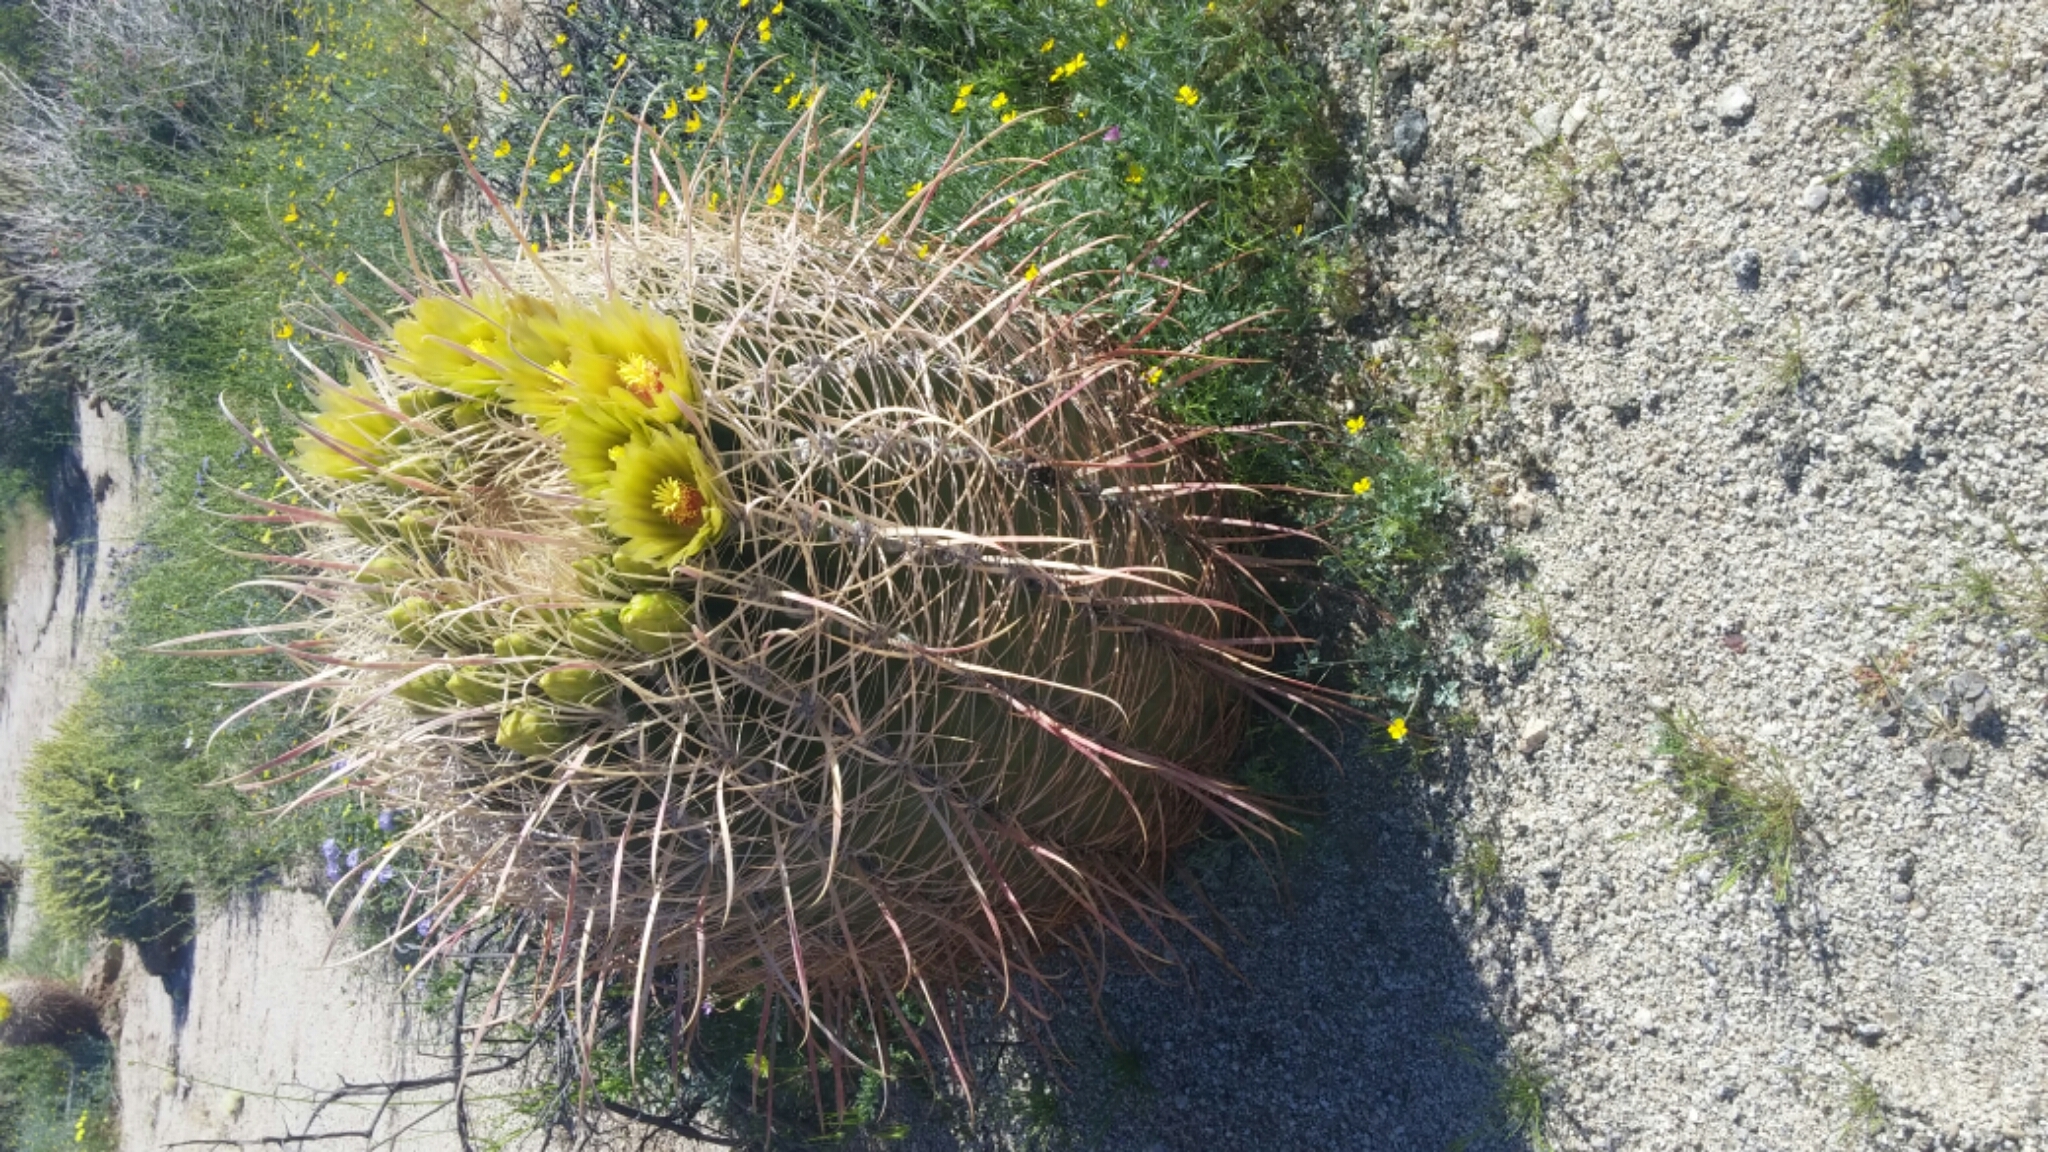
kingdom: Plantae
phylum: Tracheophyta
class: Magnoliopsida
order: Caryophyllales
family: Cactaceae
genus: Ferocactus
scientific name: Ferocactus cylindraceus
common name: California barrel cactus
